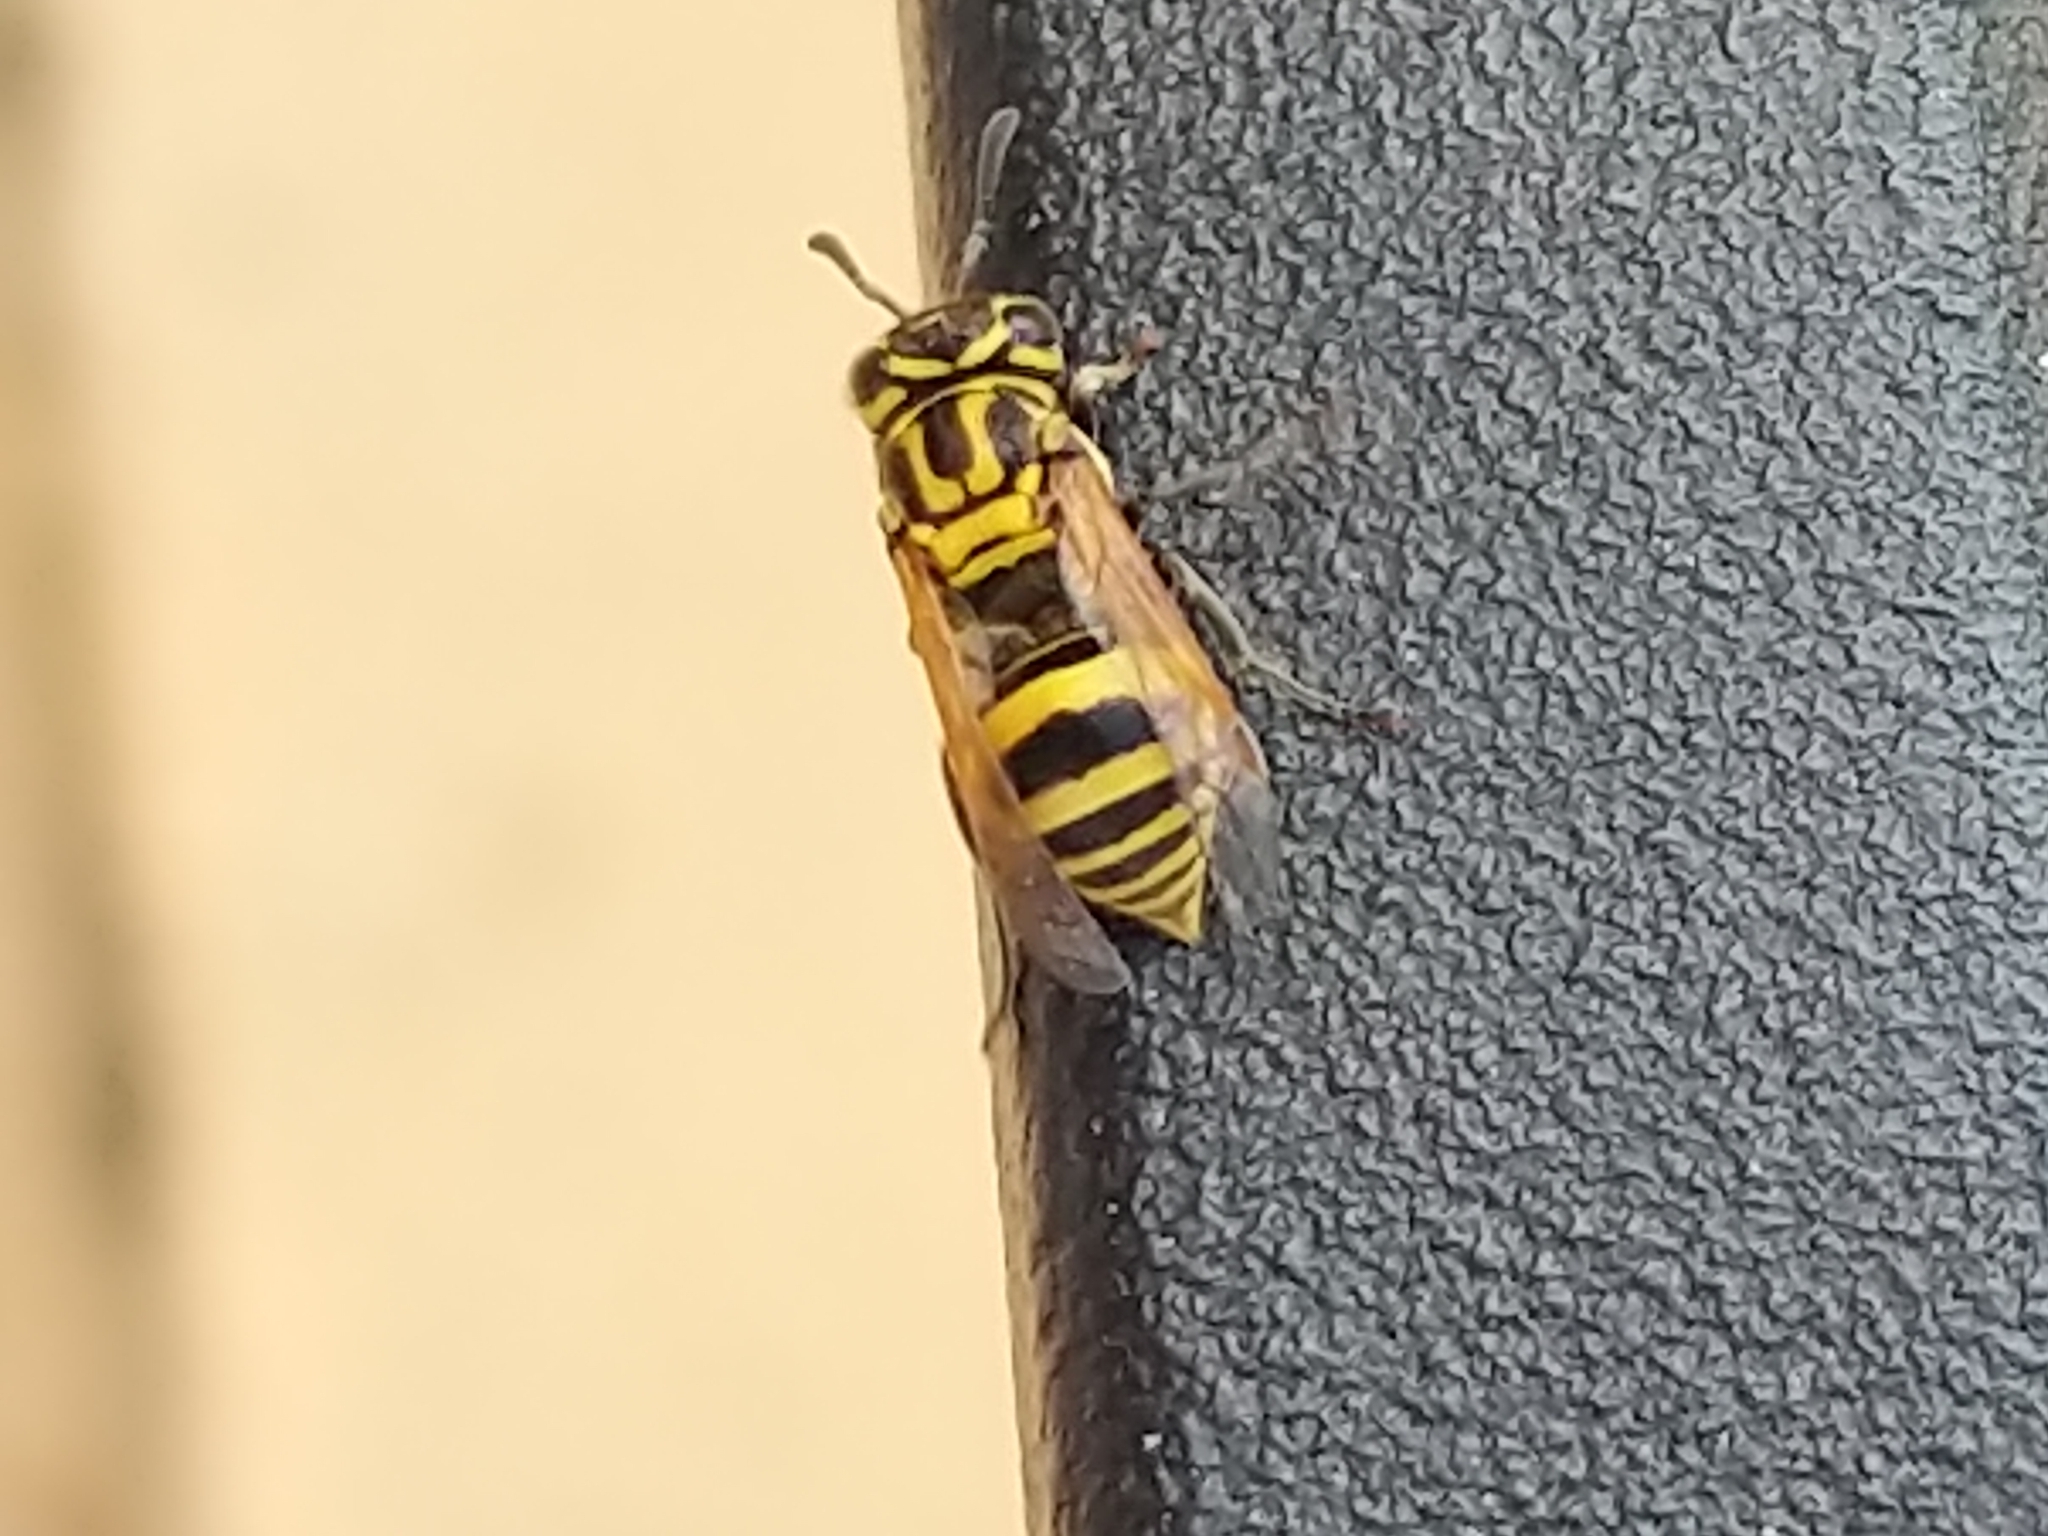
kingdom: Animalia
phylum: Arthropoda
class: Insecta
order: Hymenoptera
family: Vespidae
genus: Brachygastra
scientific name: Brachygastra smithii
